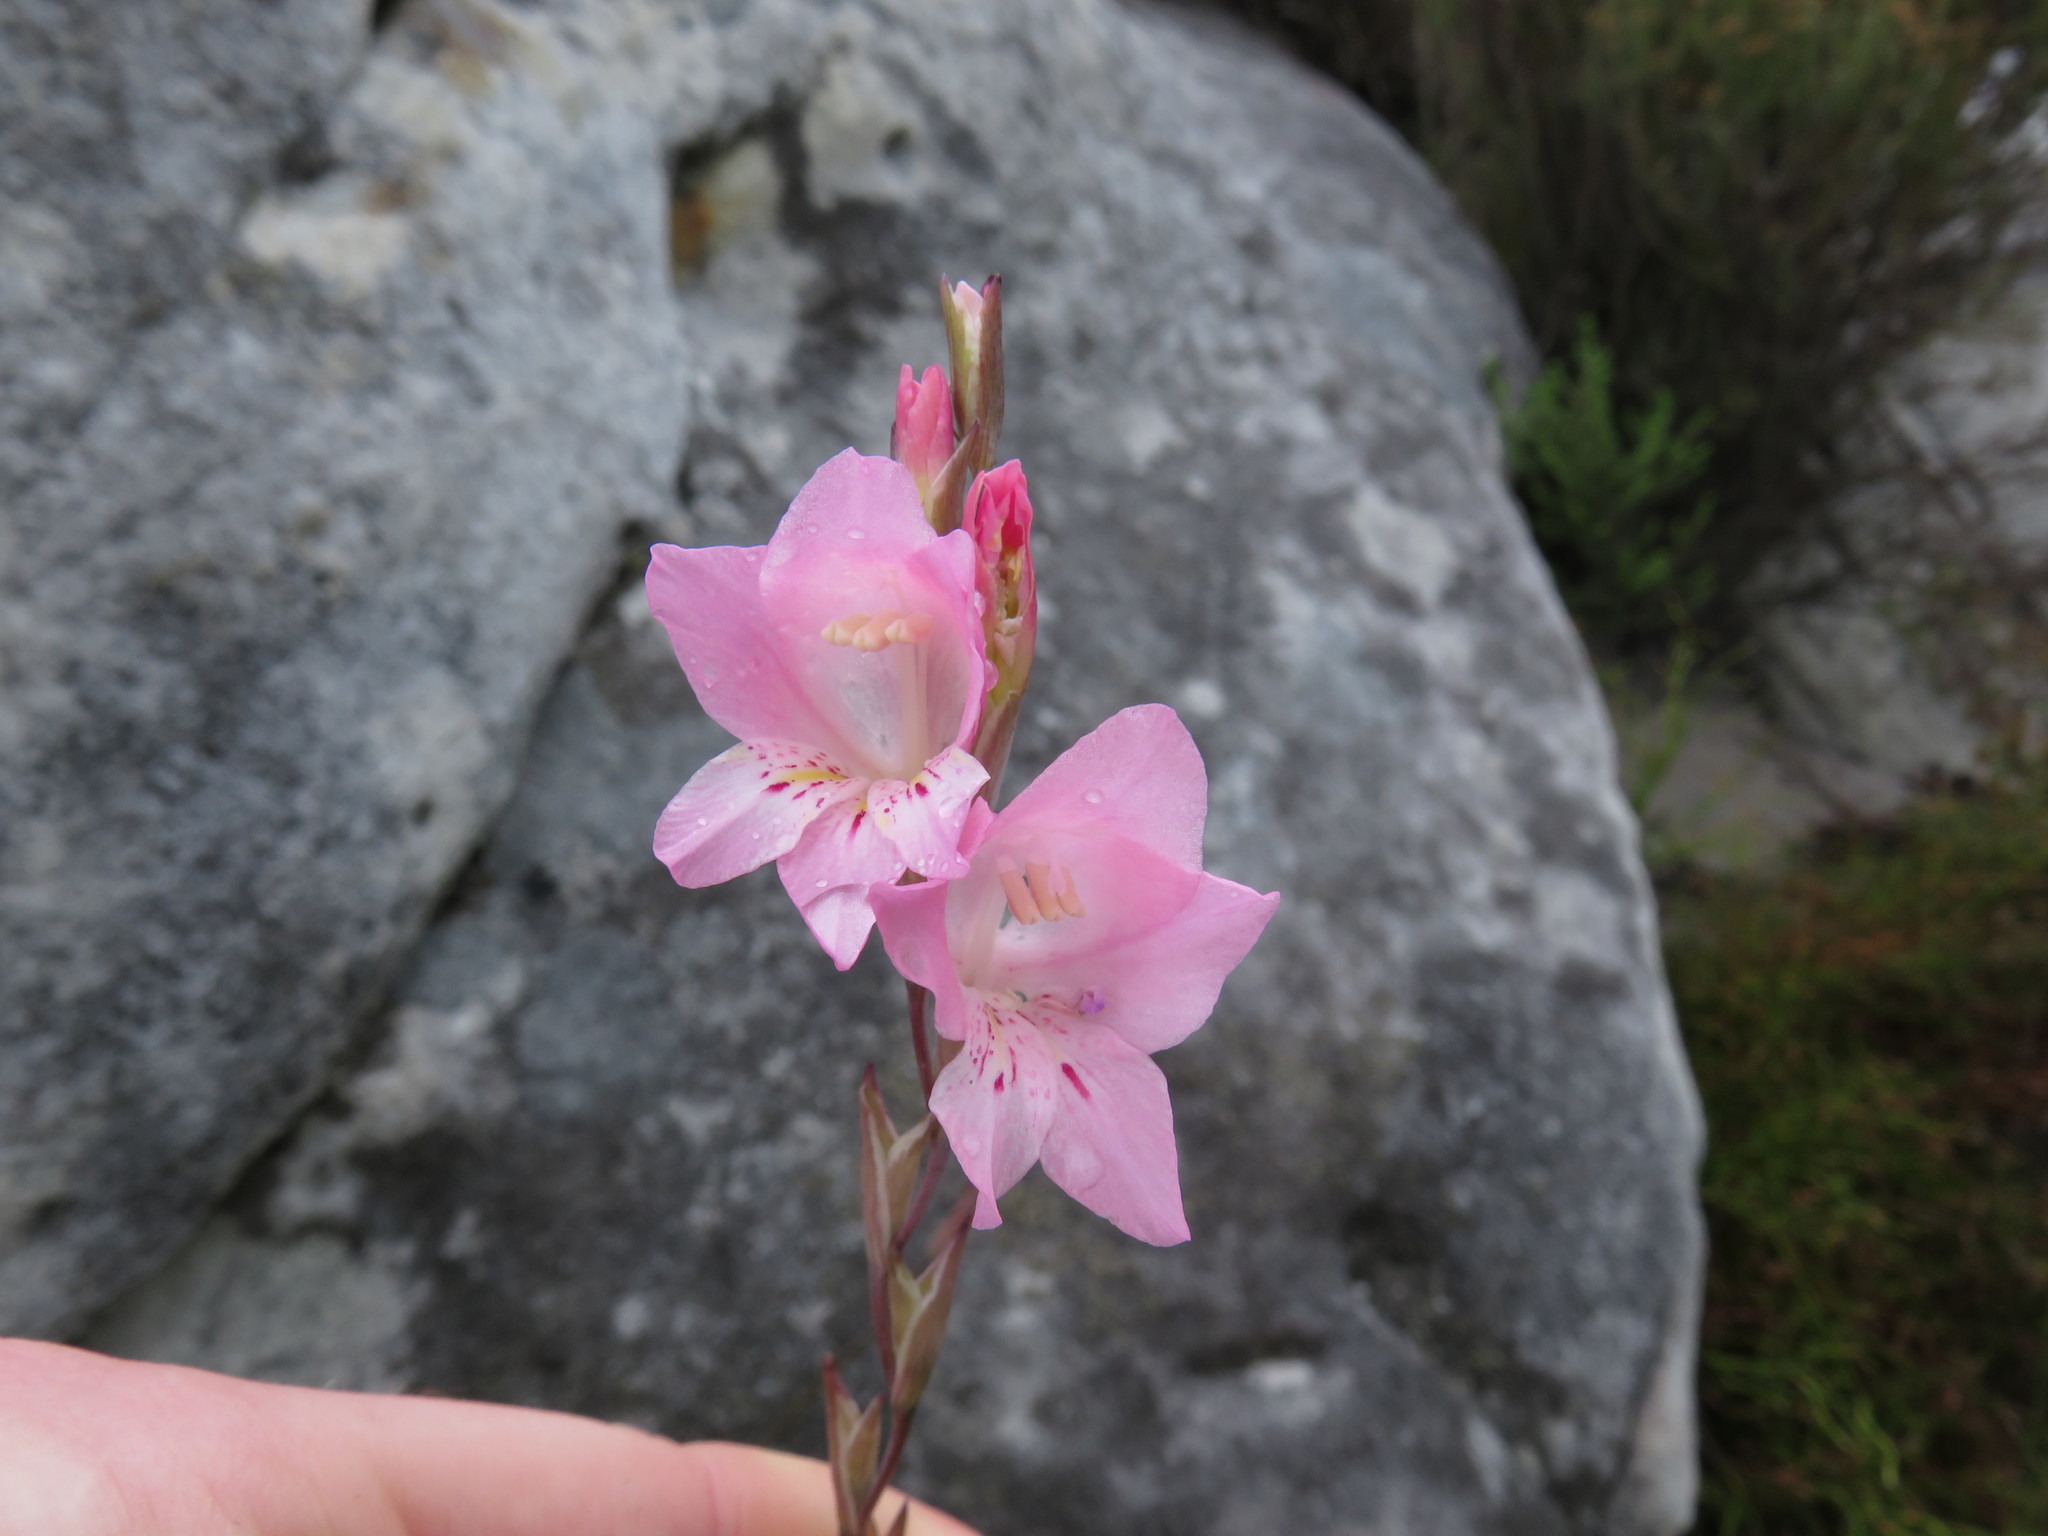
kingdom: Plantae
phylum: Tracheophyta
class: Liliopsida
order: Asparagales
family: Iridaceae
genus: Gladiolus
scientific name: Gladiolus brevifolius
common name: March pypie
